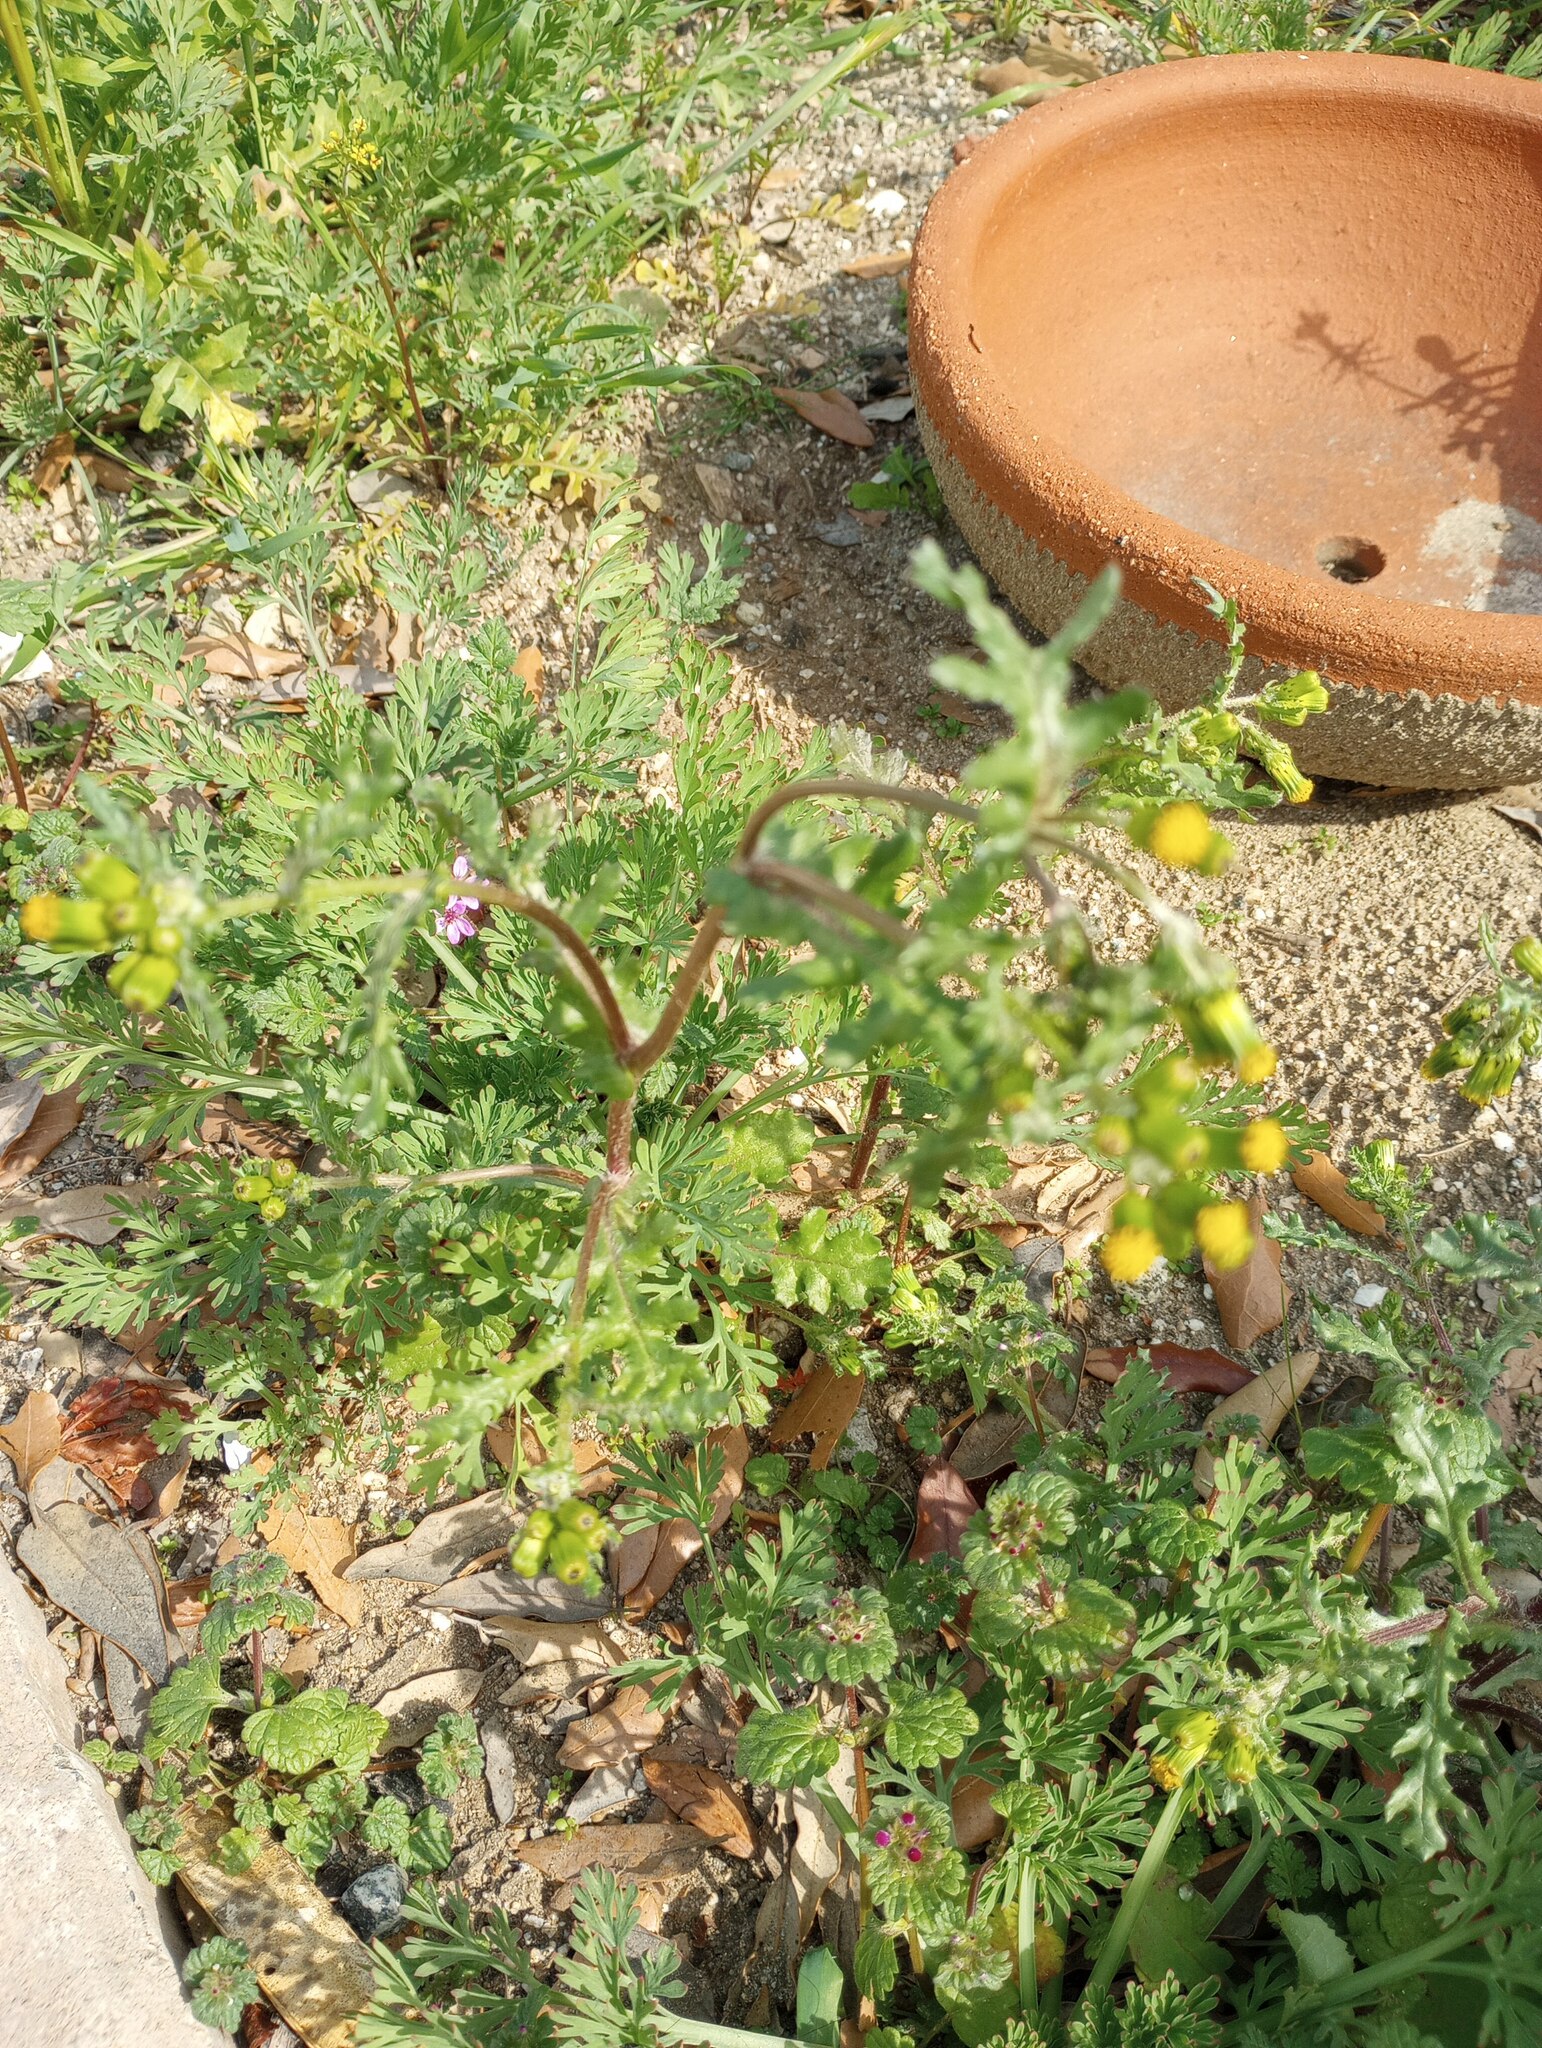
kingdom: Plantae
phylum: Tracheophyta
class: Magnoliopsida
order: Asterales
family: Asteraceae
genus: Senecio
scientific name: Senecio vulgaris
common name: Old-man-in-the-spring
